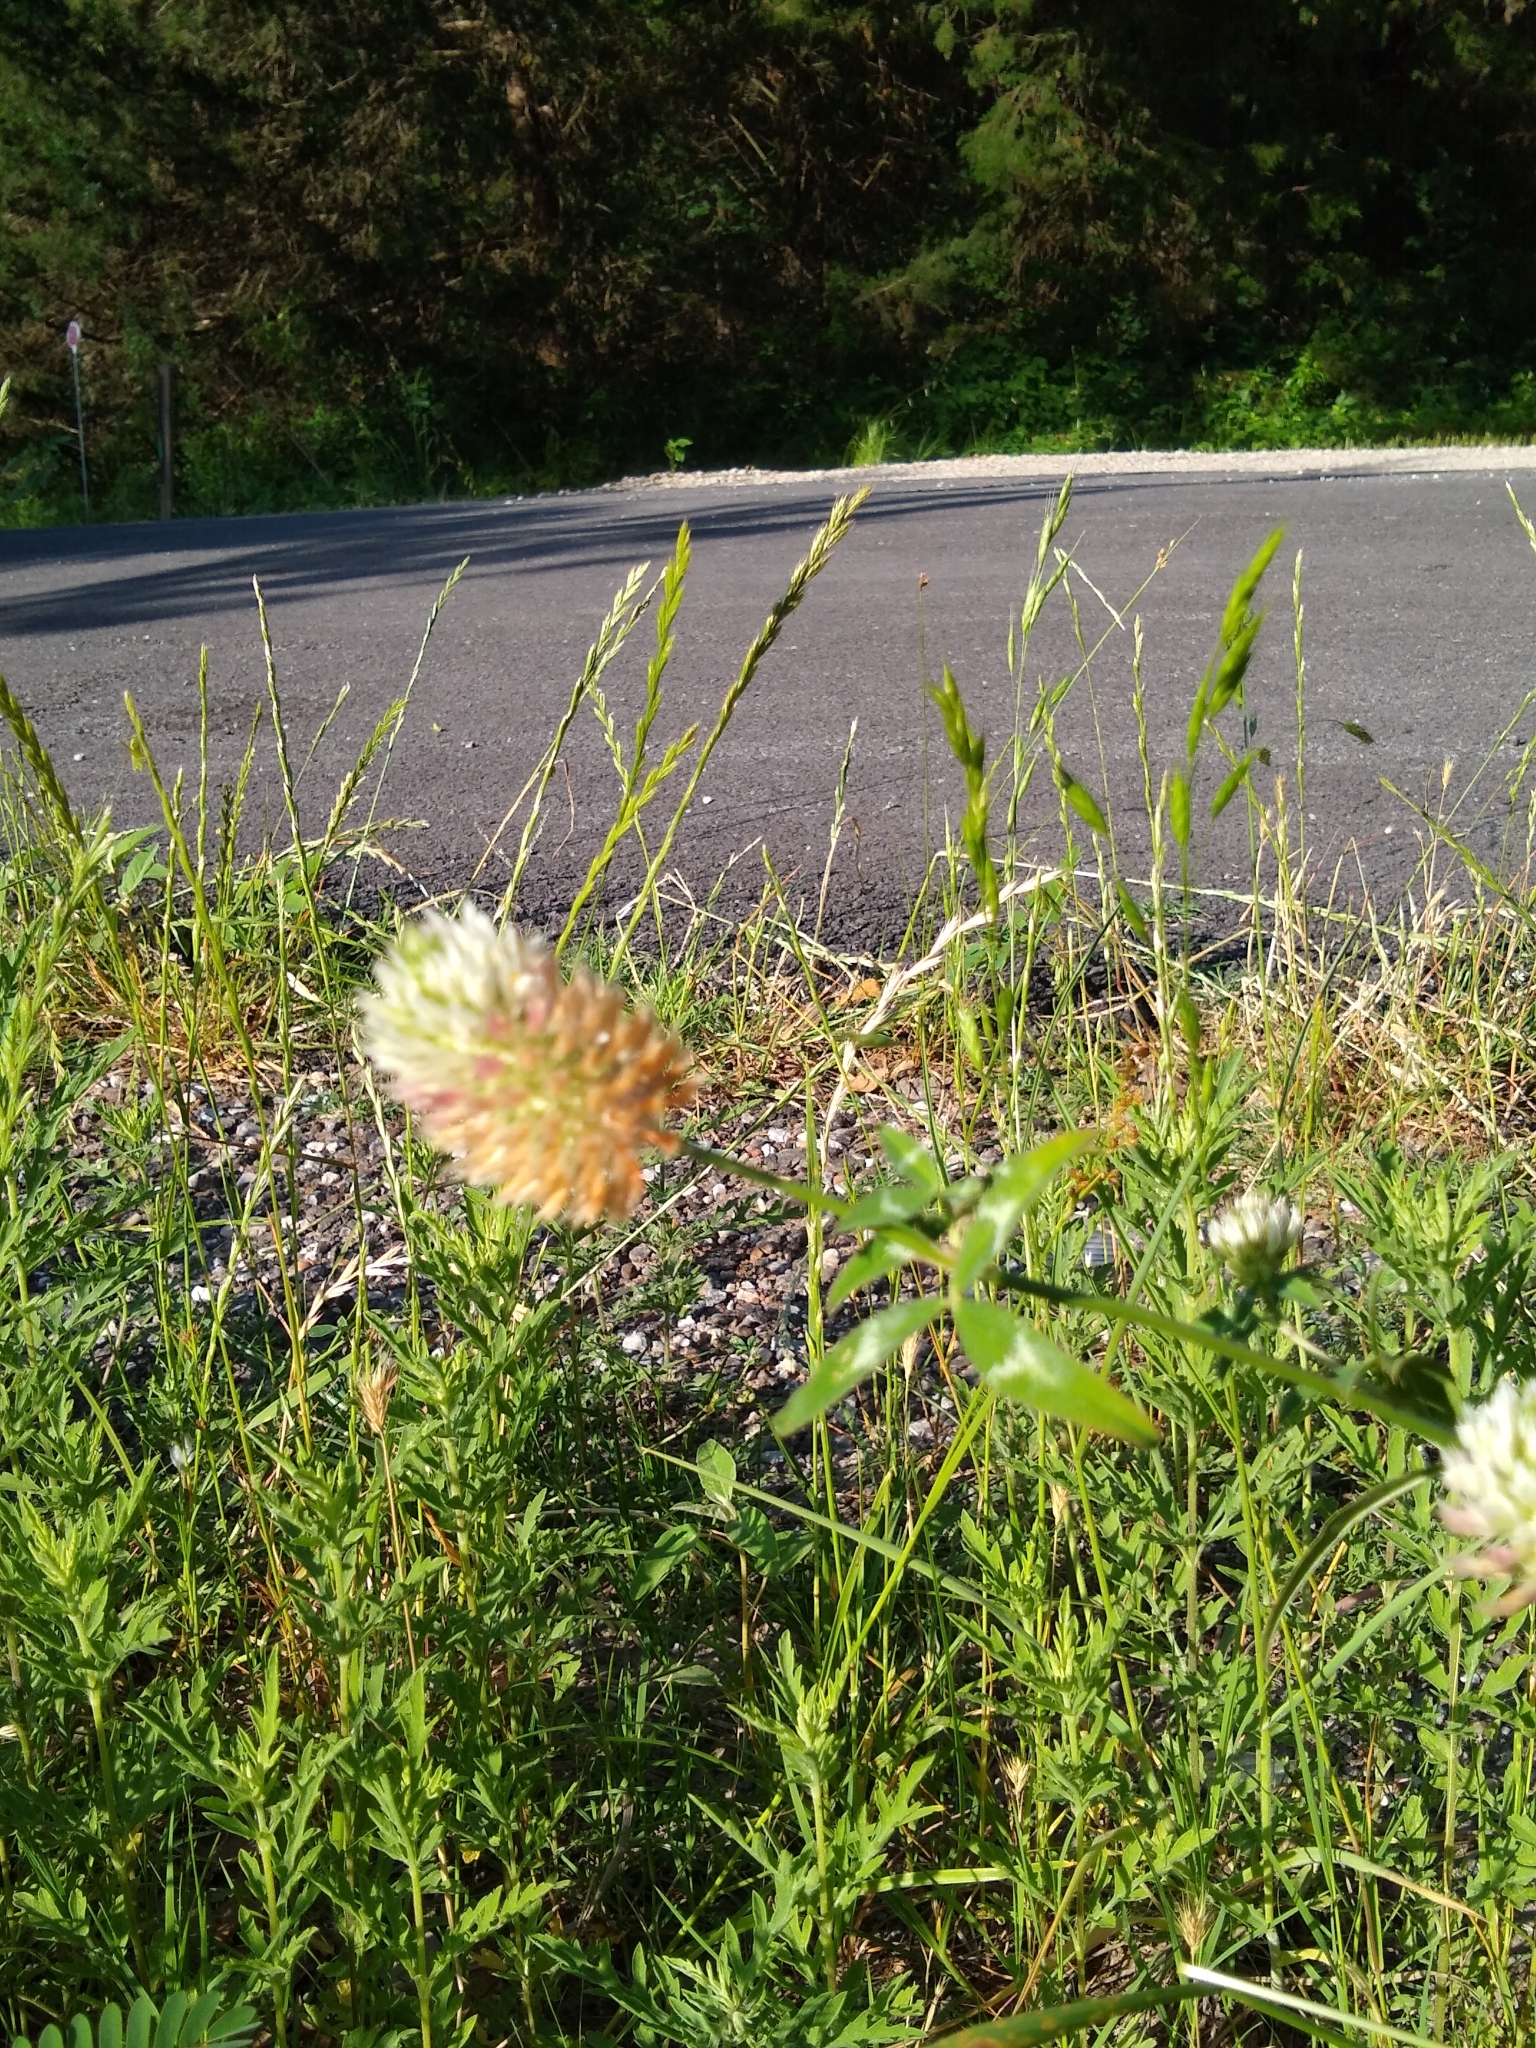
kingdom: Plantae
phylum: Tracheophyta
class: Magnoliopsida
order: Fabales
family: Fabaceae
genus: Trifolium
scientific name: Trifolium vesiculosum
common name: Arrowleaf clover
